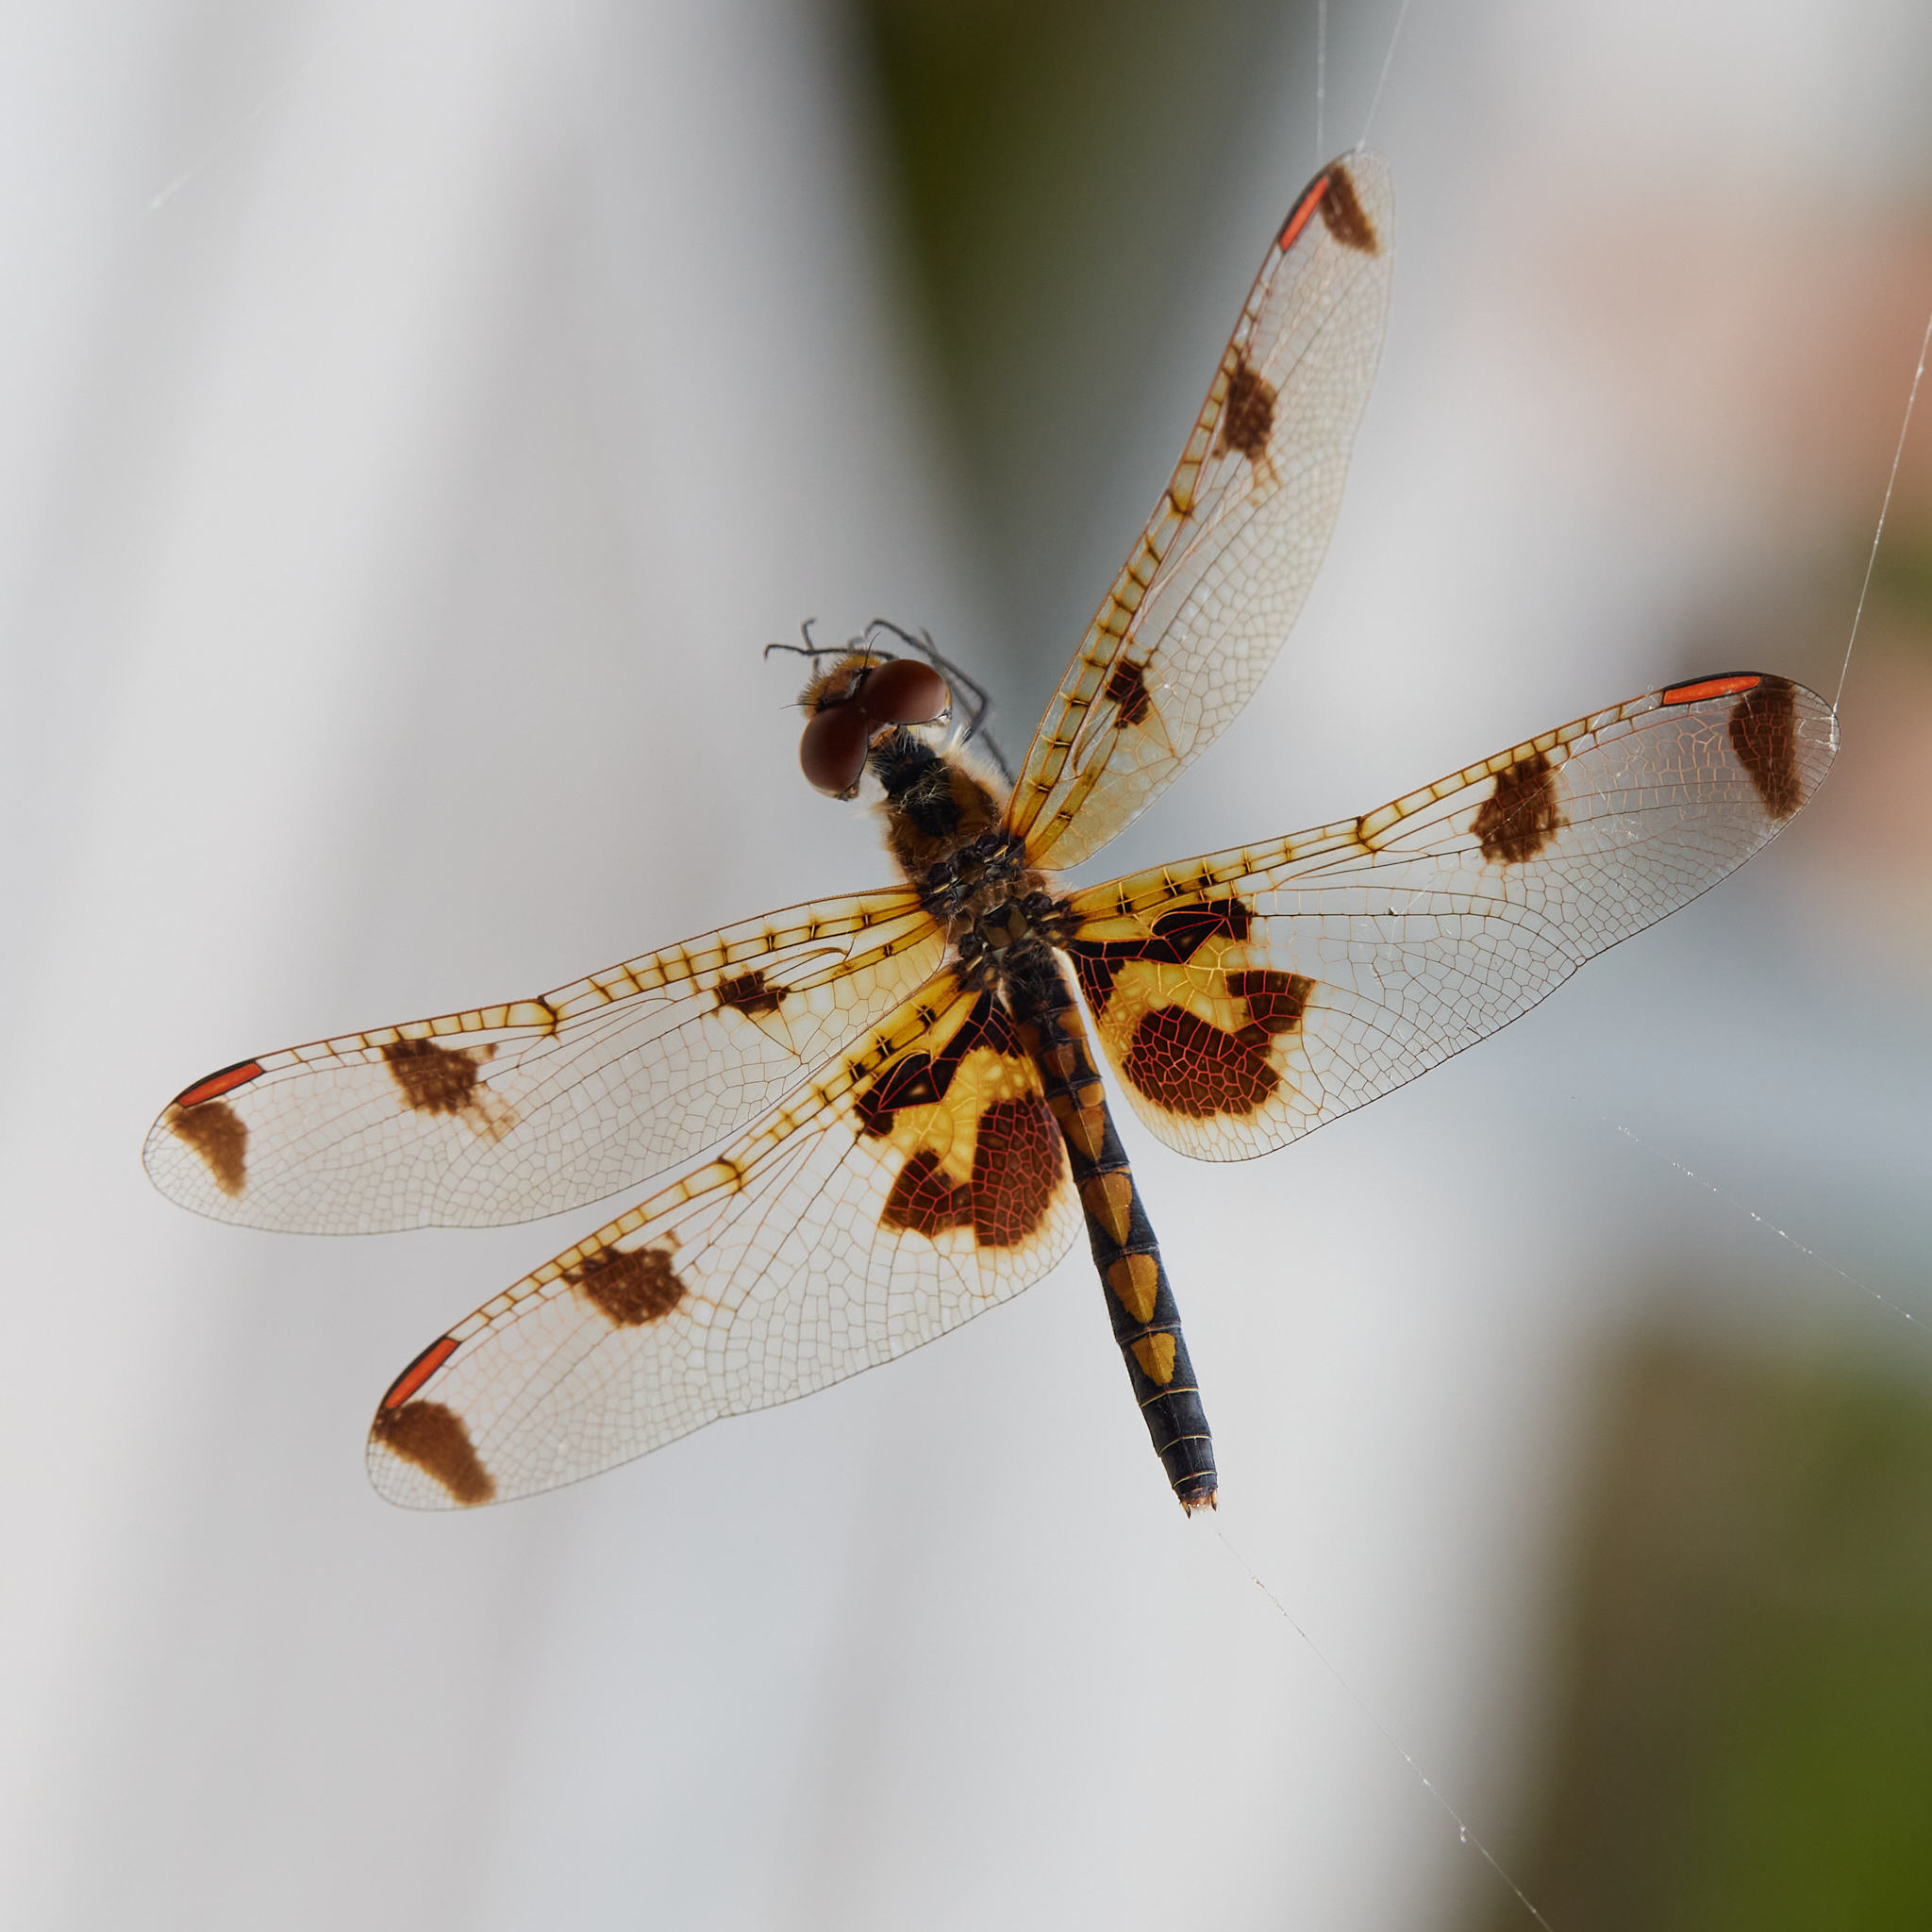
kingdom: Animalia
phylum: Arthropoda
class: Insecta
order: Odonata
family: Libellulidae
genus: Celithemis
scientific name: Celithemis elisa
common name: Calico pennant
